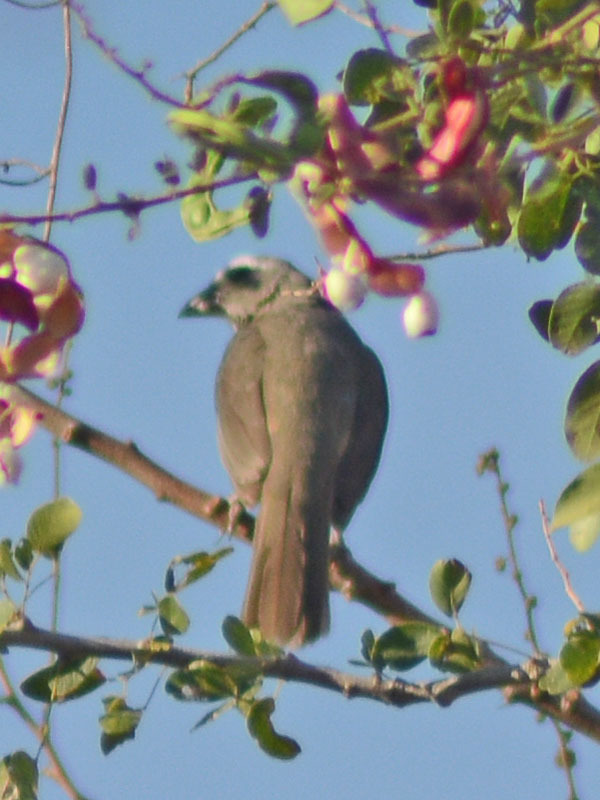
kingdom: Animalia
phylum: Chordata
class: Aves
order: Passeriformes
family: Thraupidae
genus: Saltator
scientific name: Saltator grandis
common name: Cinnamon-bellied saltator
